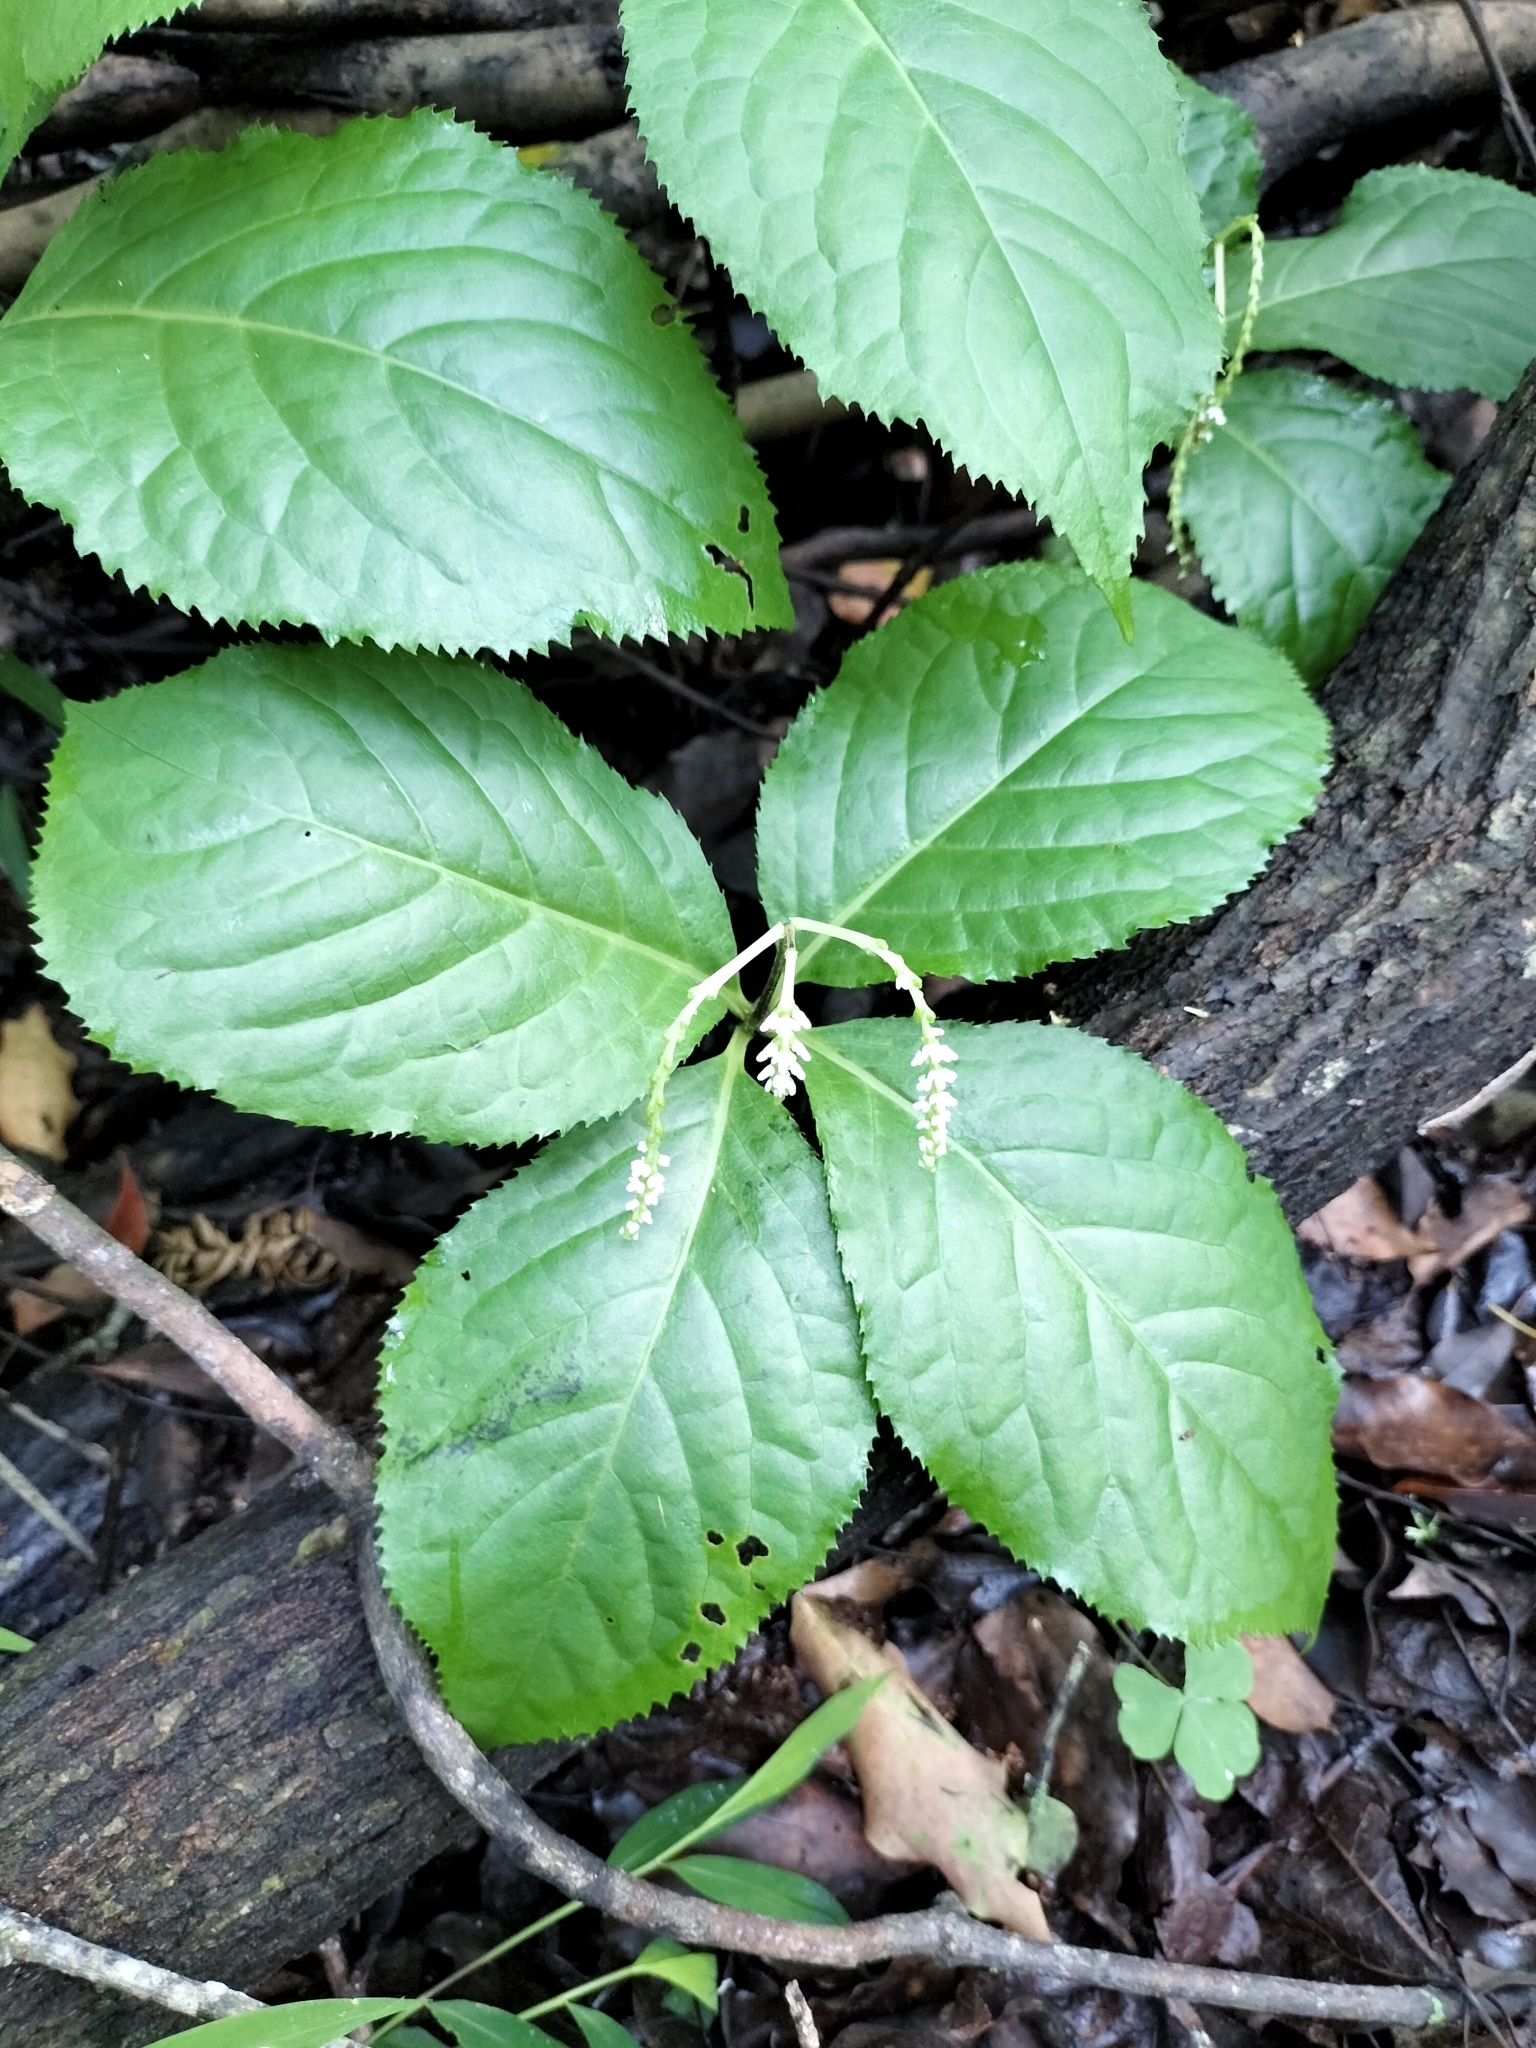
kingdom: Plantae
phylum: Tracheophyta
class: Magnoliopsida
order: Chloranthales
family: Chloranthaceae
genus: Chloranthus
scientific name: Chloranthus oldhamii
